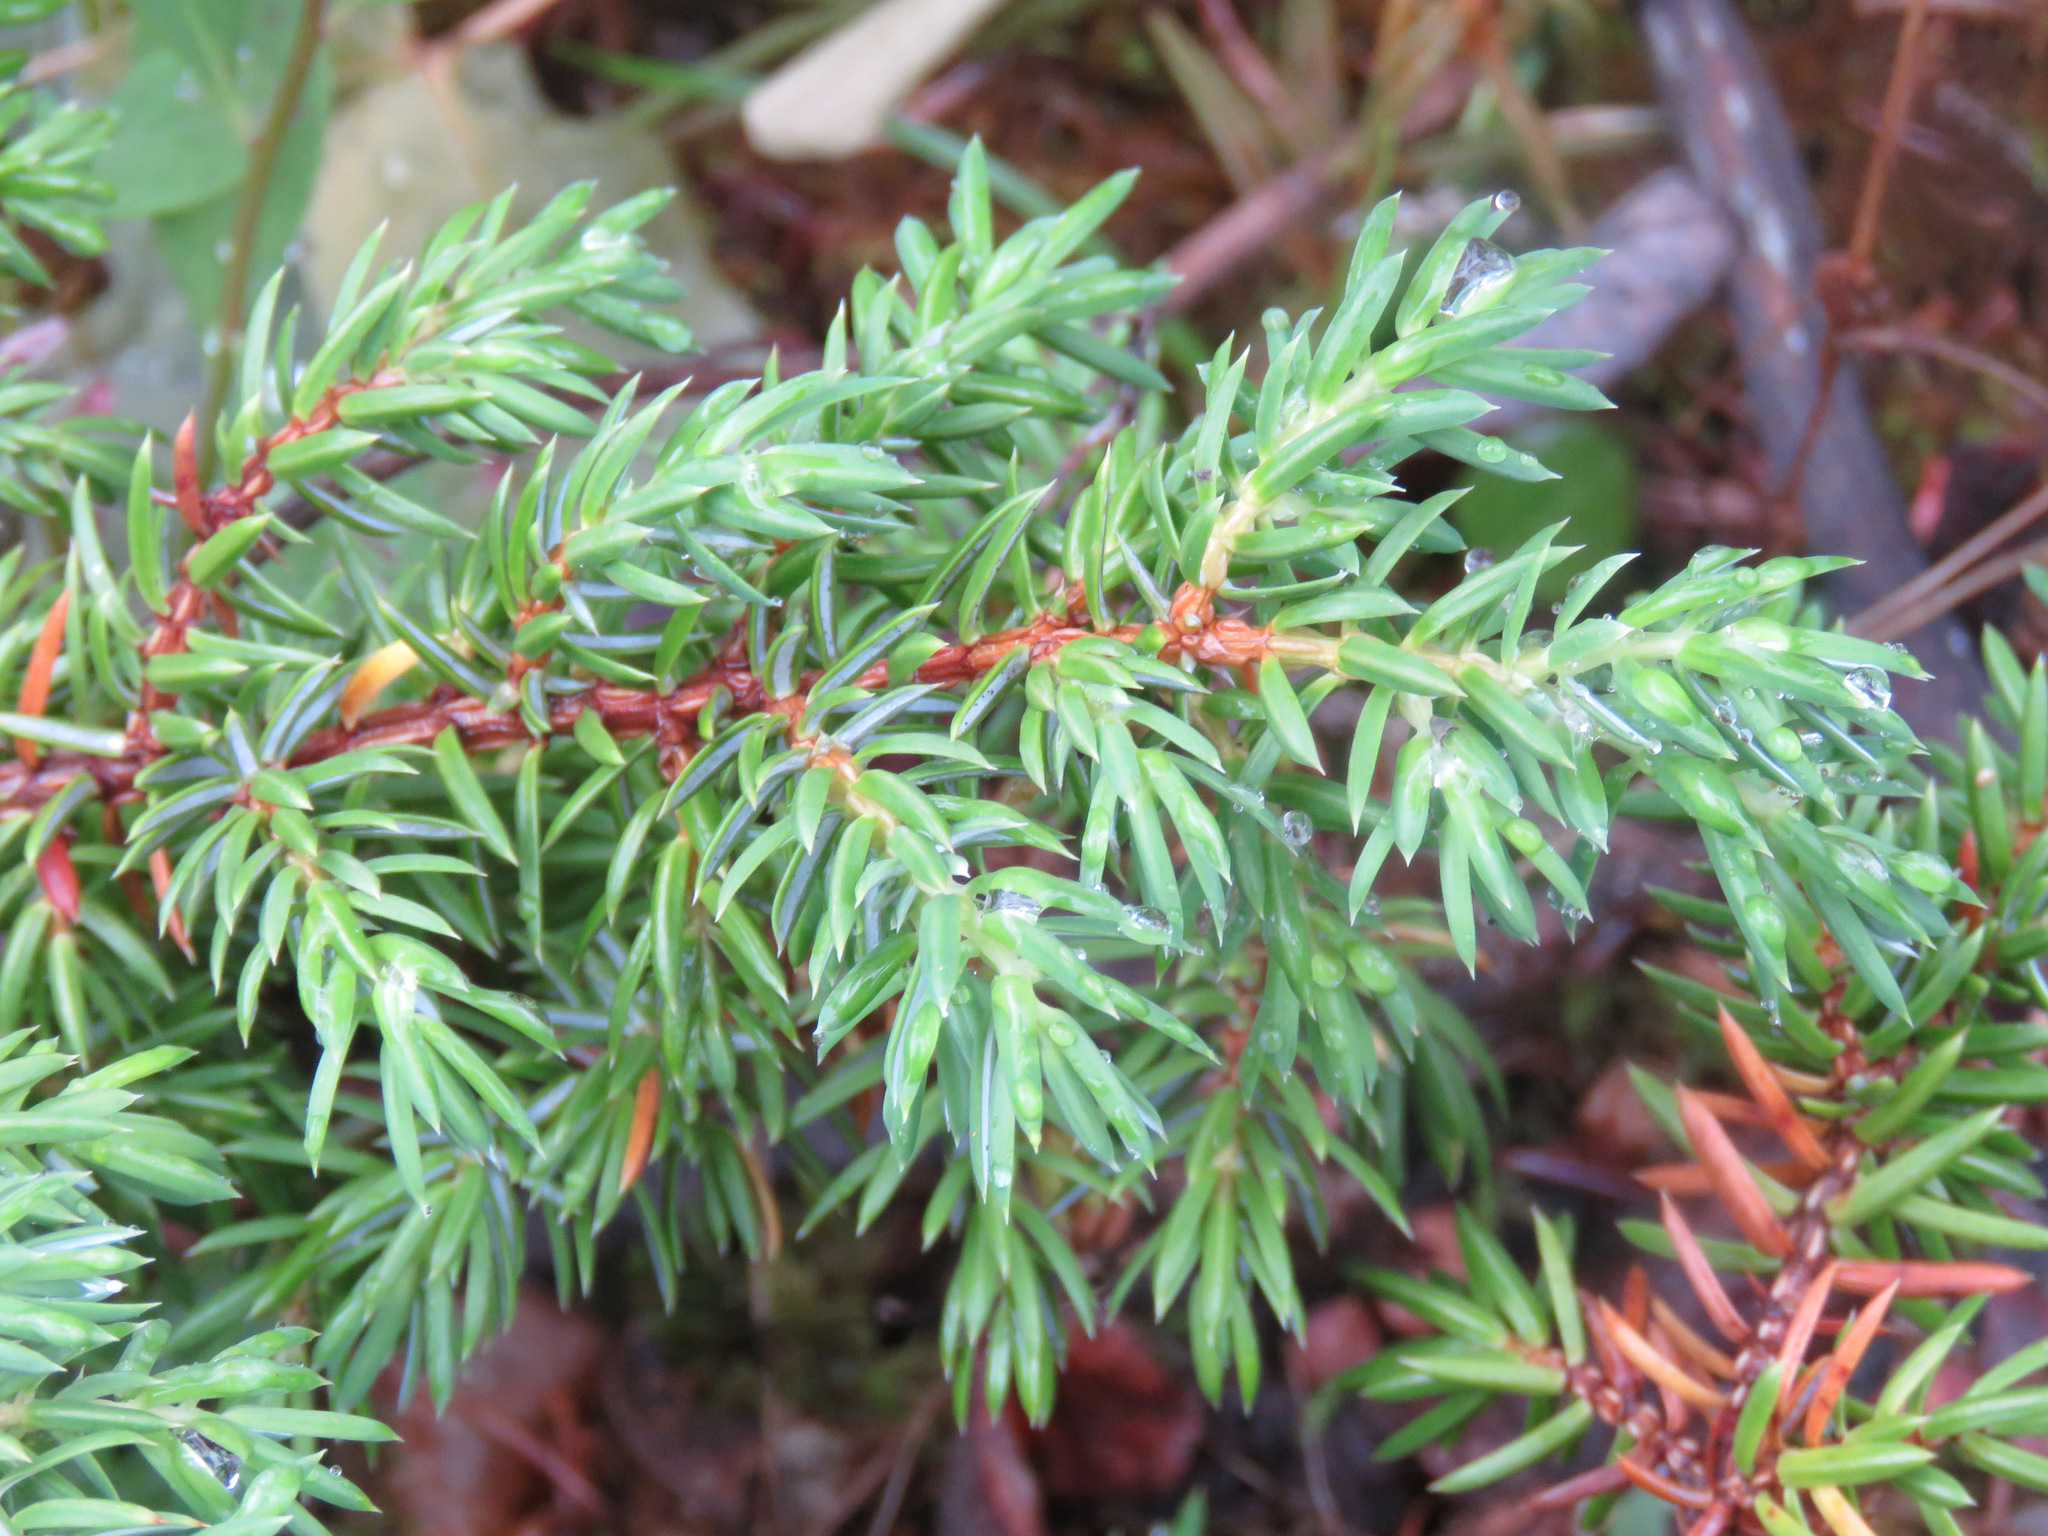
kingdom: Plantae
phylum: Tracheophyta
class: Pinopsida
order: Pinales
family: Cupressaceae
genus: Juniperus
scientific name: Juniperus communis
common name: Common juniper
